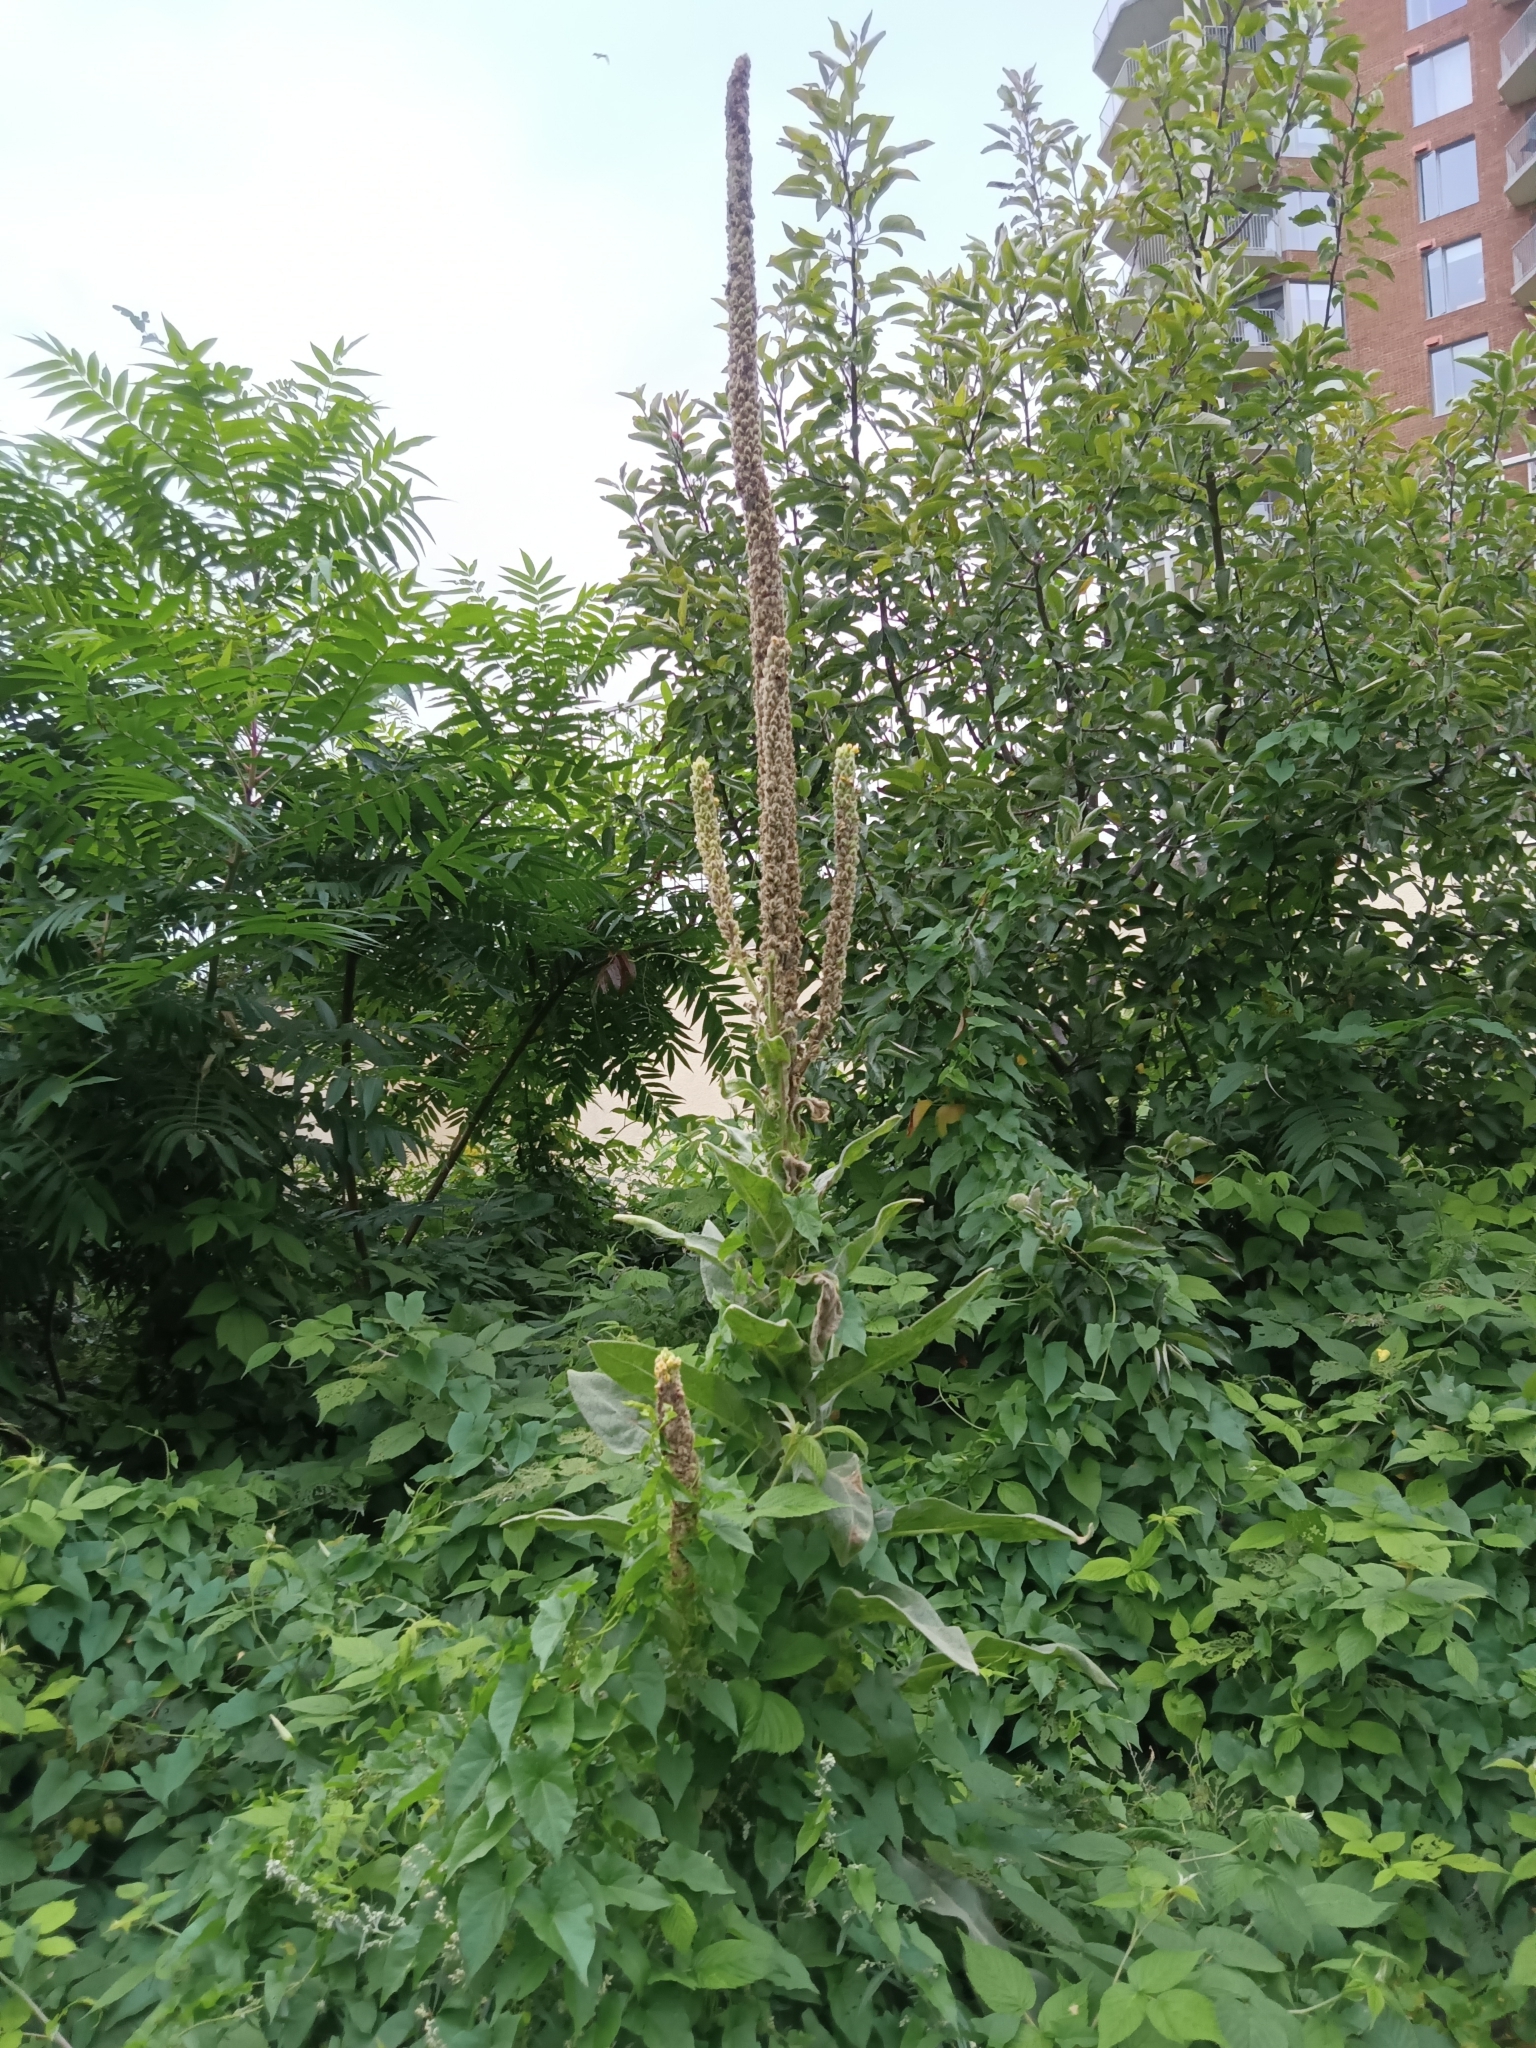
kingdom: Plantae
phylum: Tracheophyta
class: Magnoliopsida
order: Lamiales
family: Scrophulariaceae
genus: Verbascum
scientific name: Verbascum thapsus
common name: Common mullein
